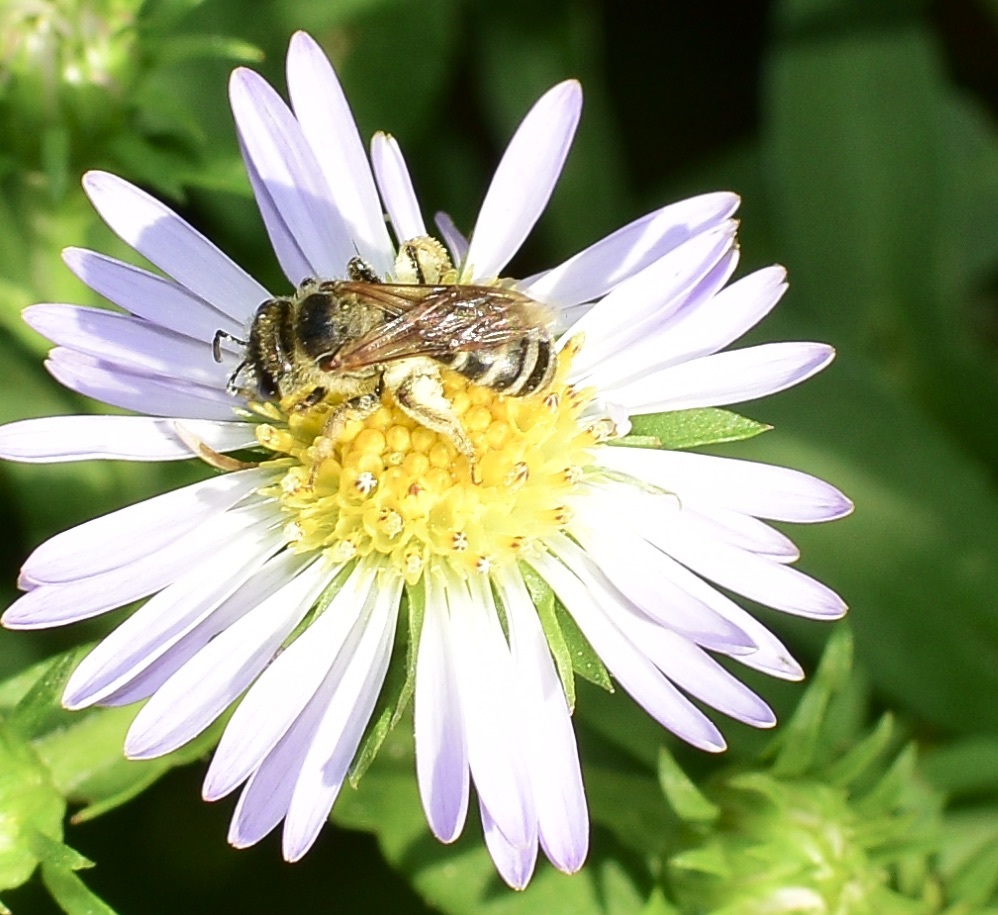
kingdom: Animalia
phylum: Arthropoda
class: Insecta
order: Hymenoptera
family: Halictidae
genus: Halictus
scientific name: Halictus ligatus
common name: Ligated furrow bee
